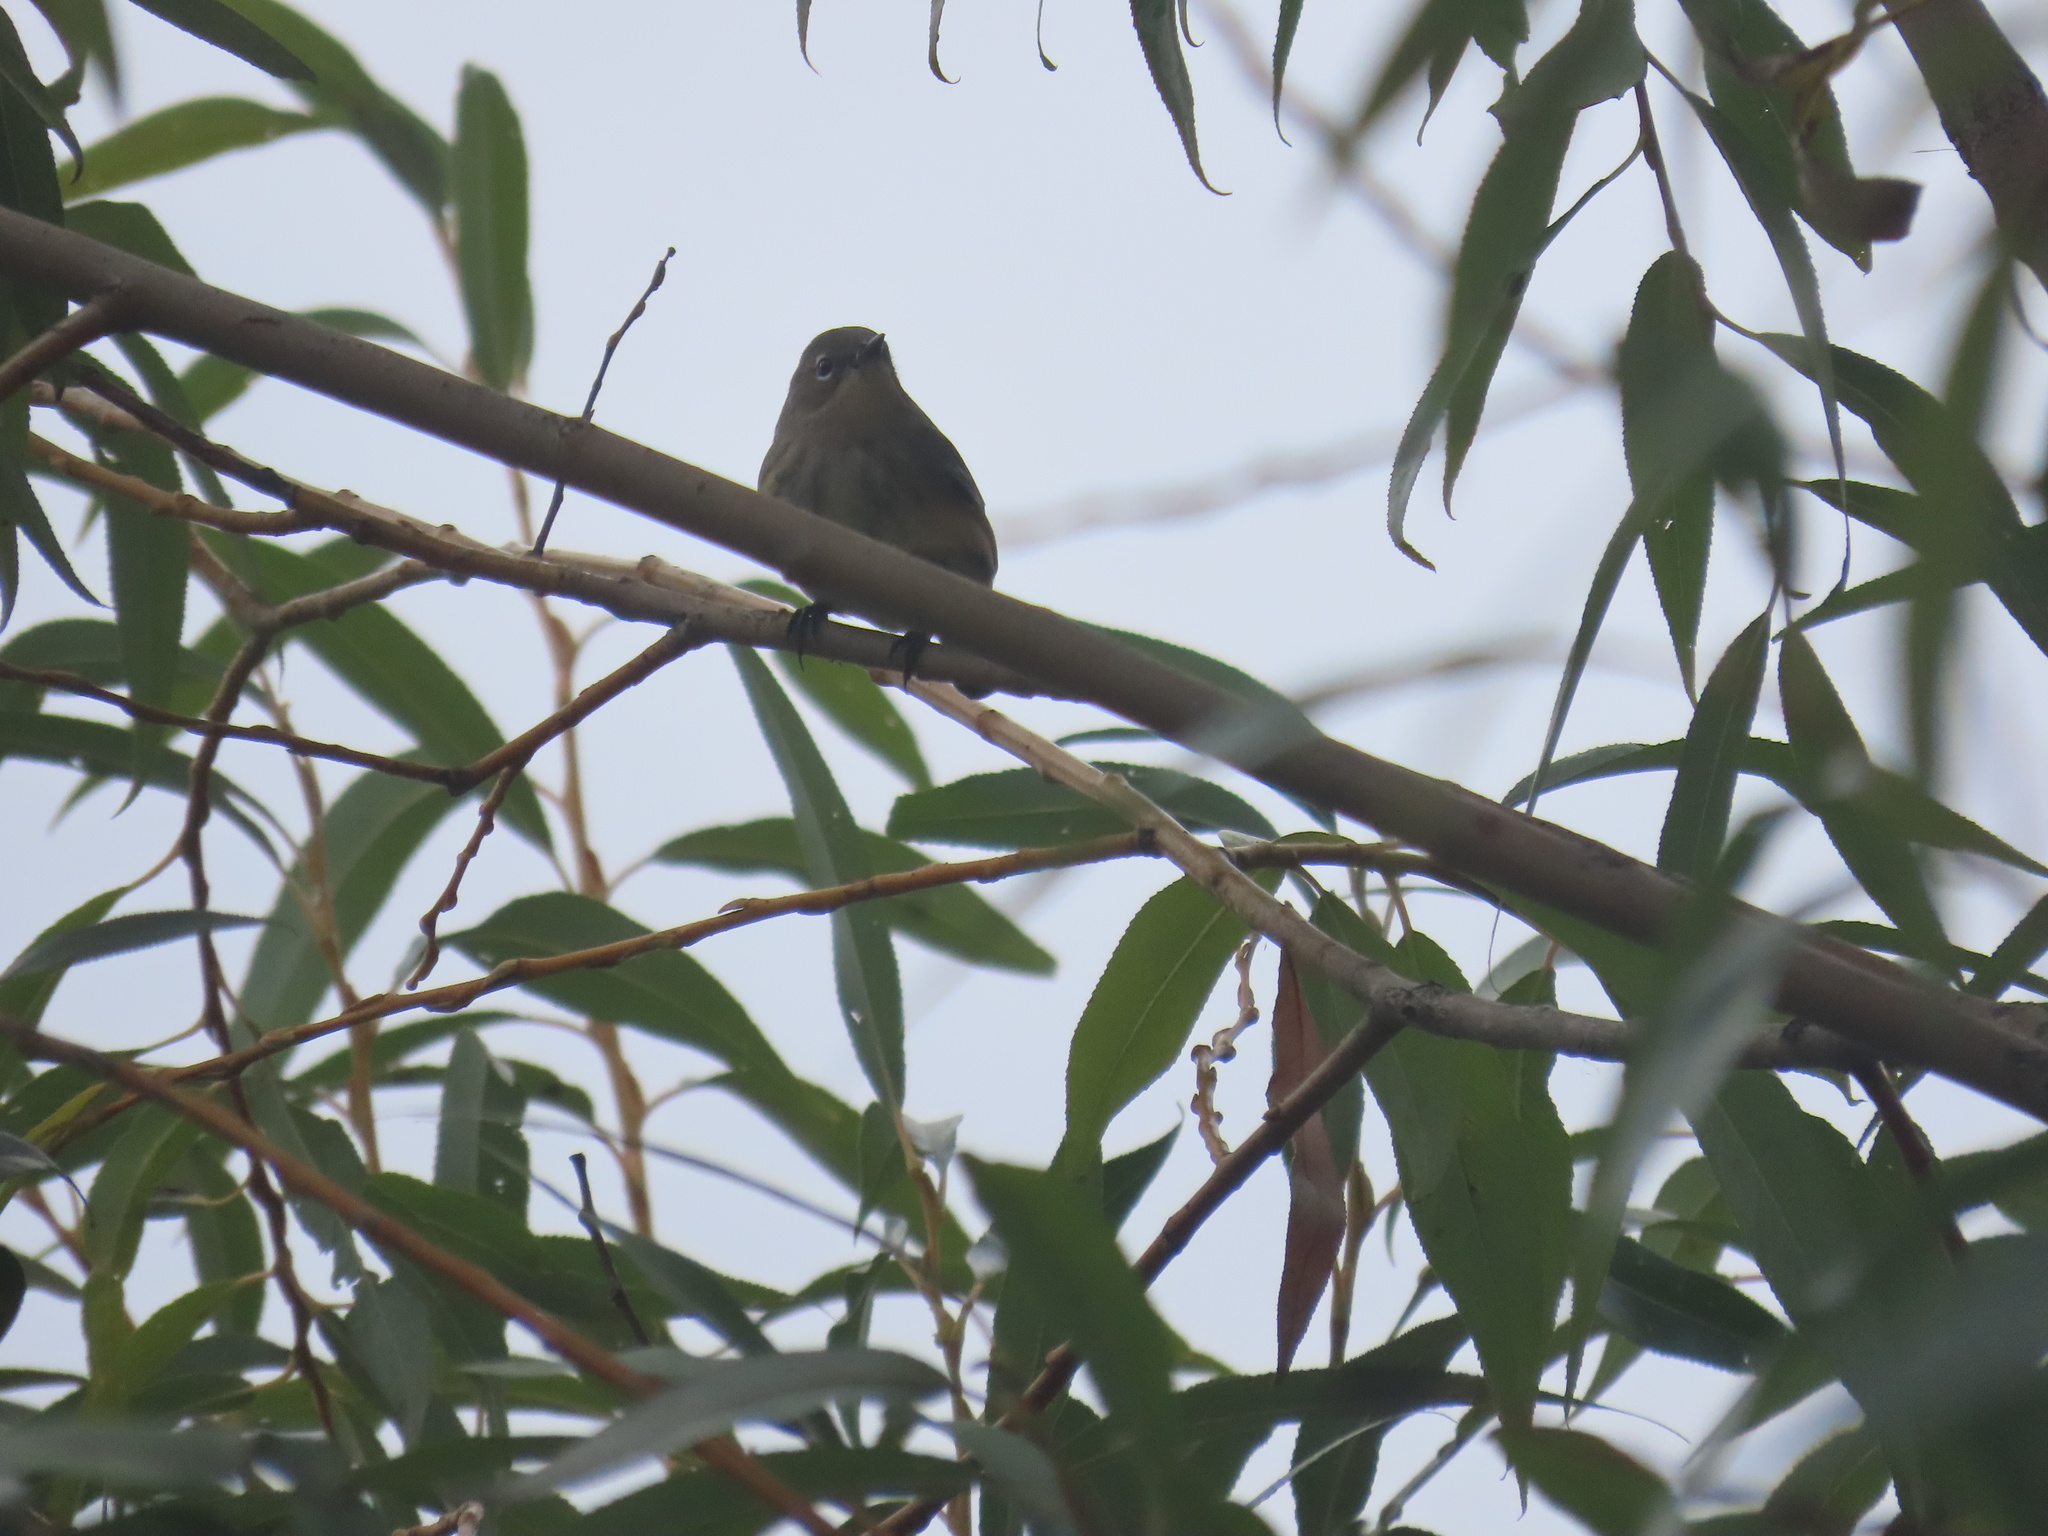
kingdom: Animalia
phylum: Chordata
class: Aves
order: Passeriformes
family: Parulidae
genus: Setophaga
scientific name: Setophaga coronata
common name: Myrtle warbler
